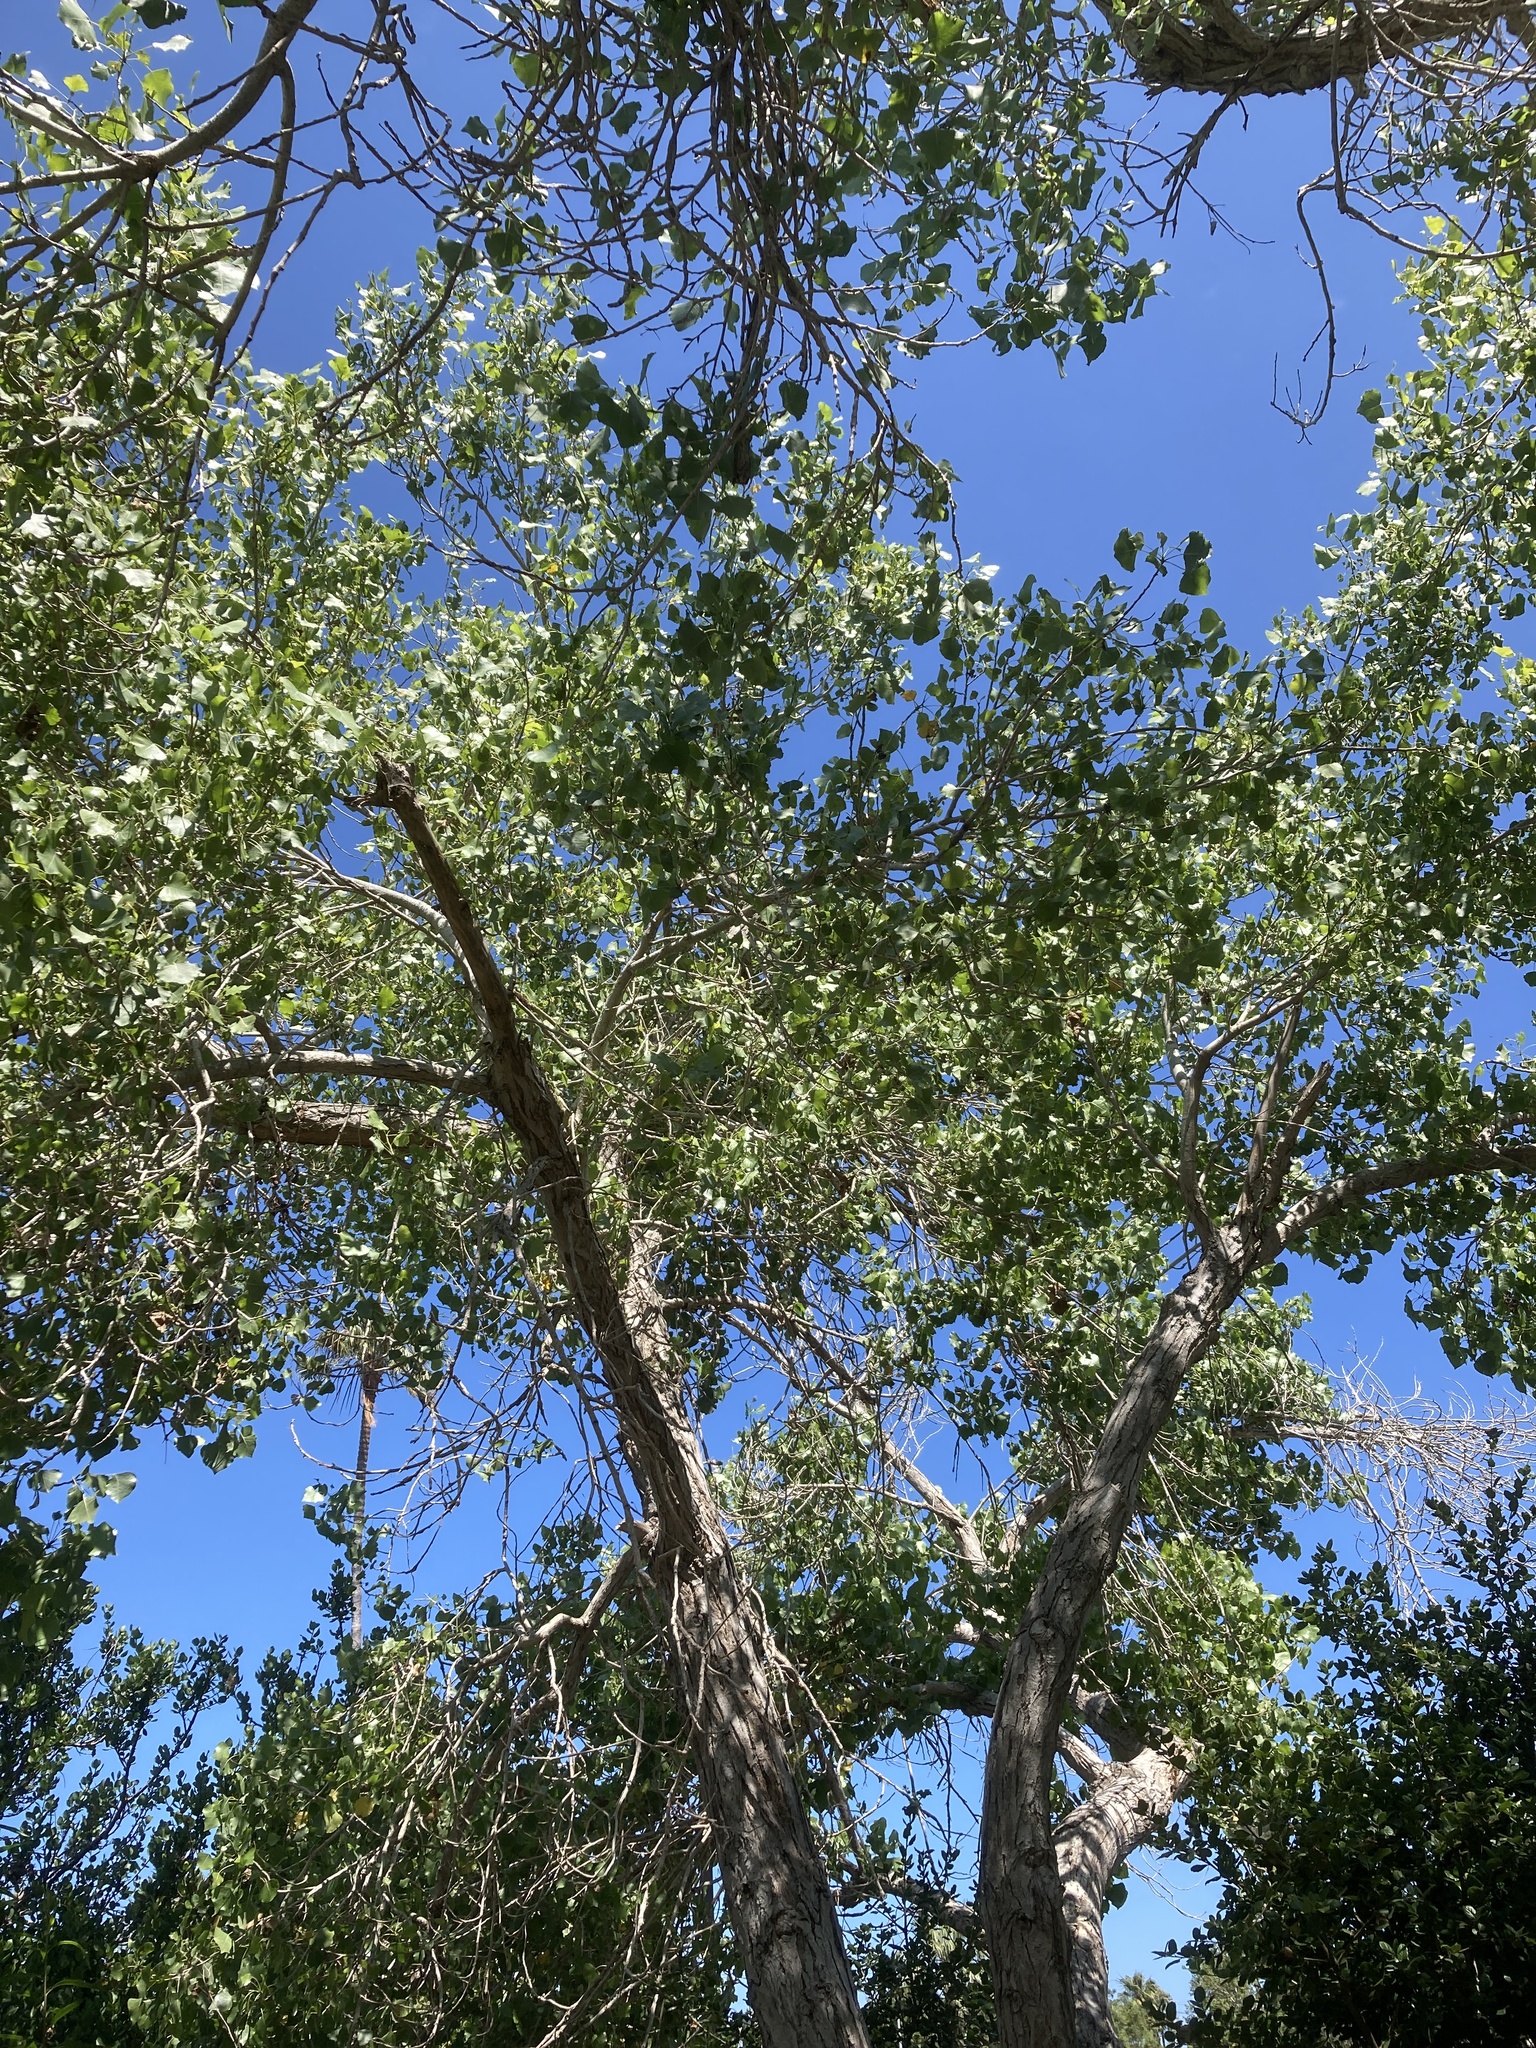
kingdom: Plantae
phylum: Tracheophyta
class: Magnoliopsida
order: Malpighiales
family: Salicaceae
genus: Populus
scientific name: Populus fremontii
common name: Fremont's cottonwood
